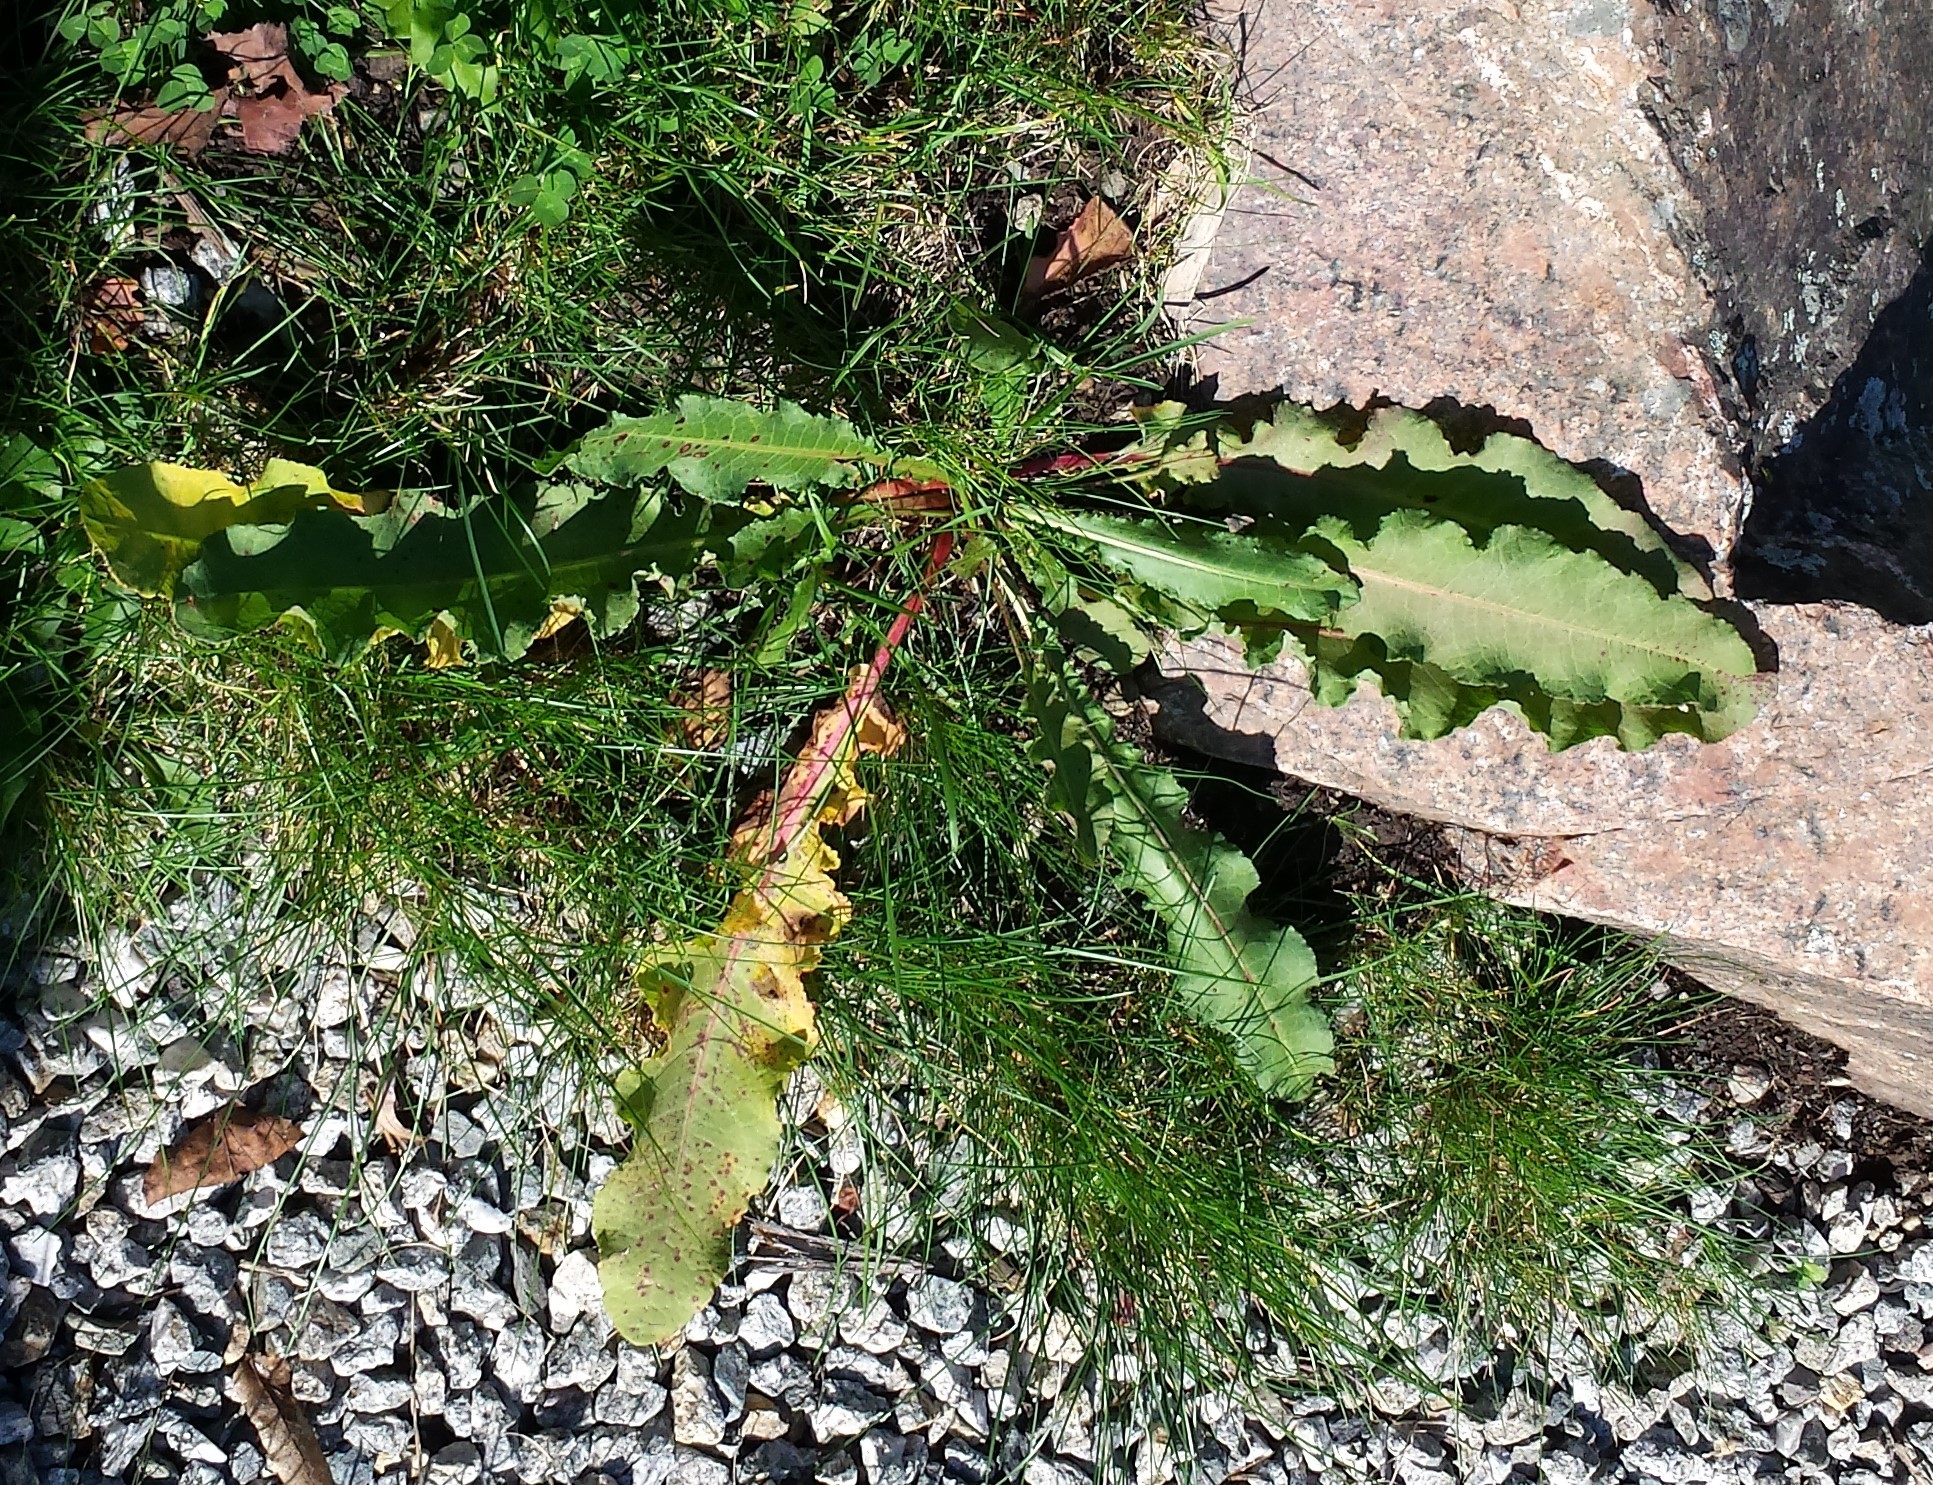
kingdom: Plantae
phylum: Tracheophyta
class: Magnoliopsida
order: Caryophyllales
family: Polygonaceae
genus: Rumex
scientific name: Rumex crispus
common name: Curled dock
